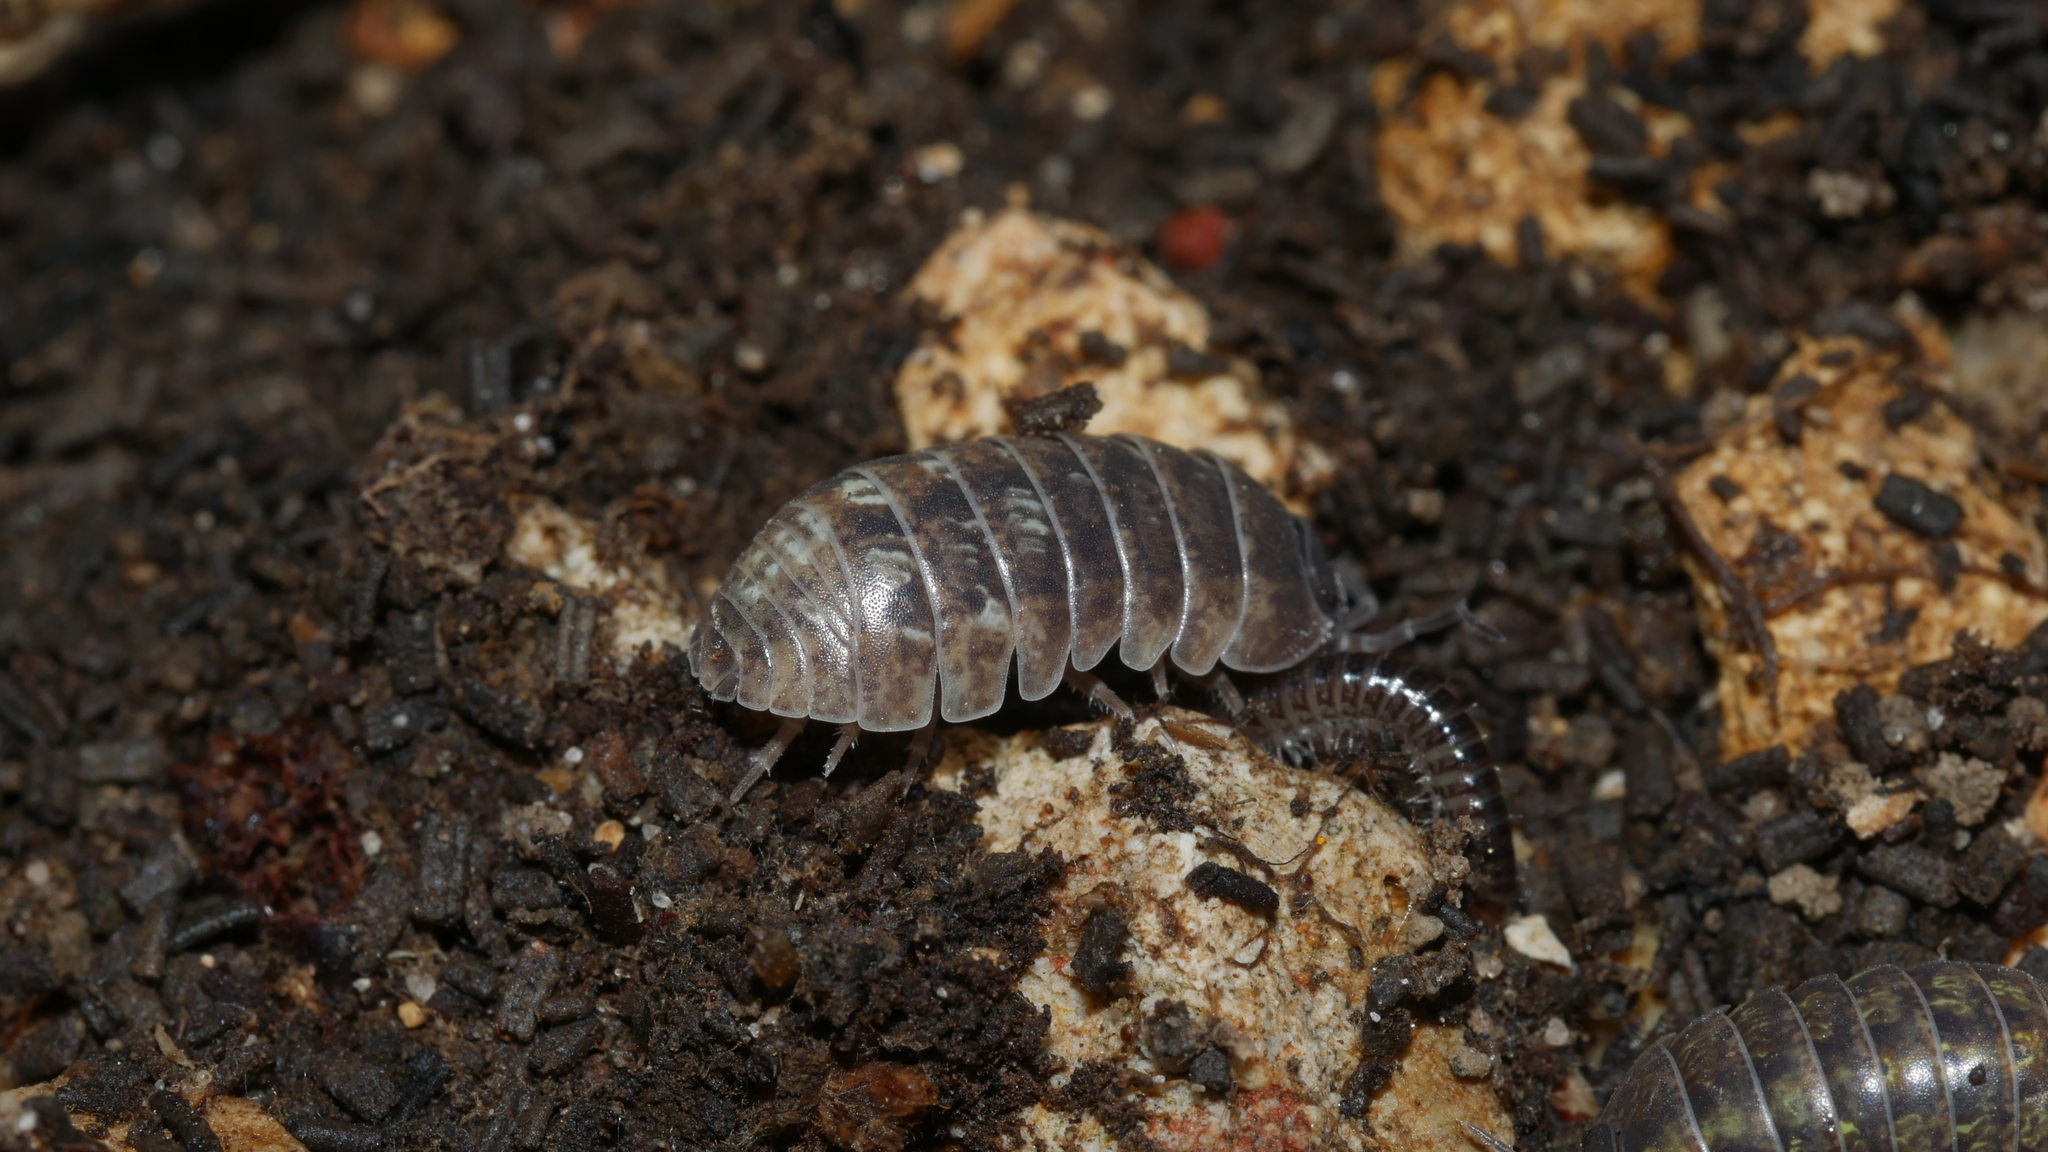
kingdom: Animalia
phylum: Arthropoda
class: Malacostraca
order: Isopoda
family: Armadillidiidae
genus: Armadillidium
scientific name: Armadillidium vulgare
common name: Common pill woodlouse
